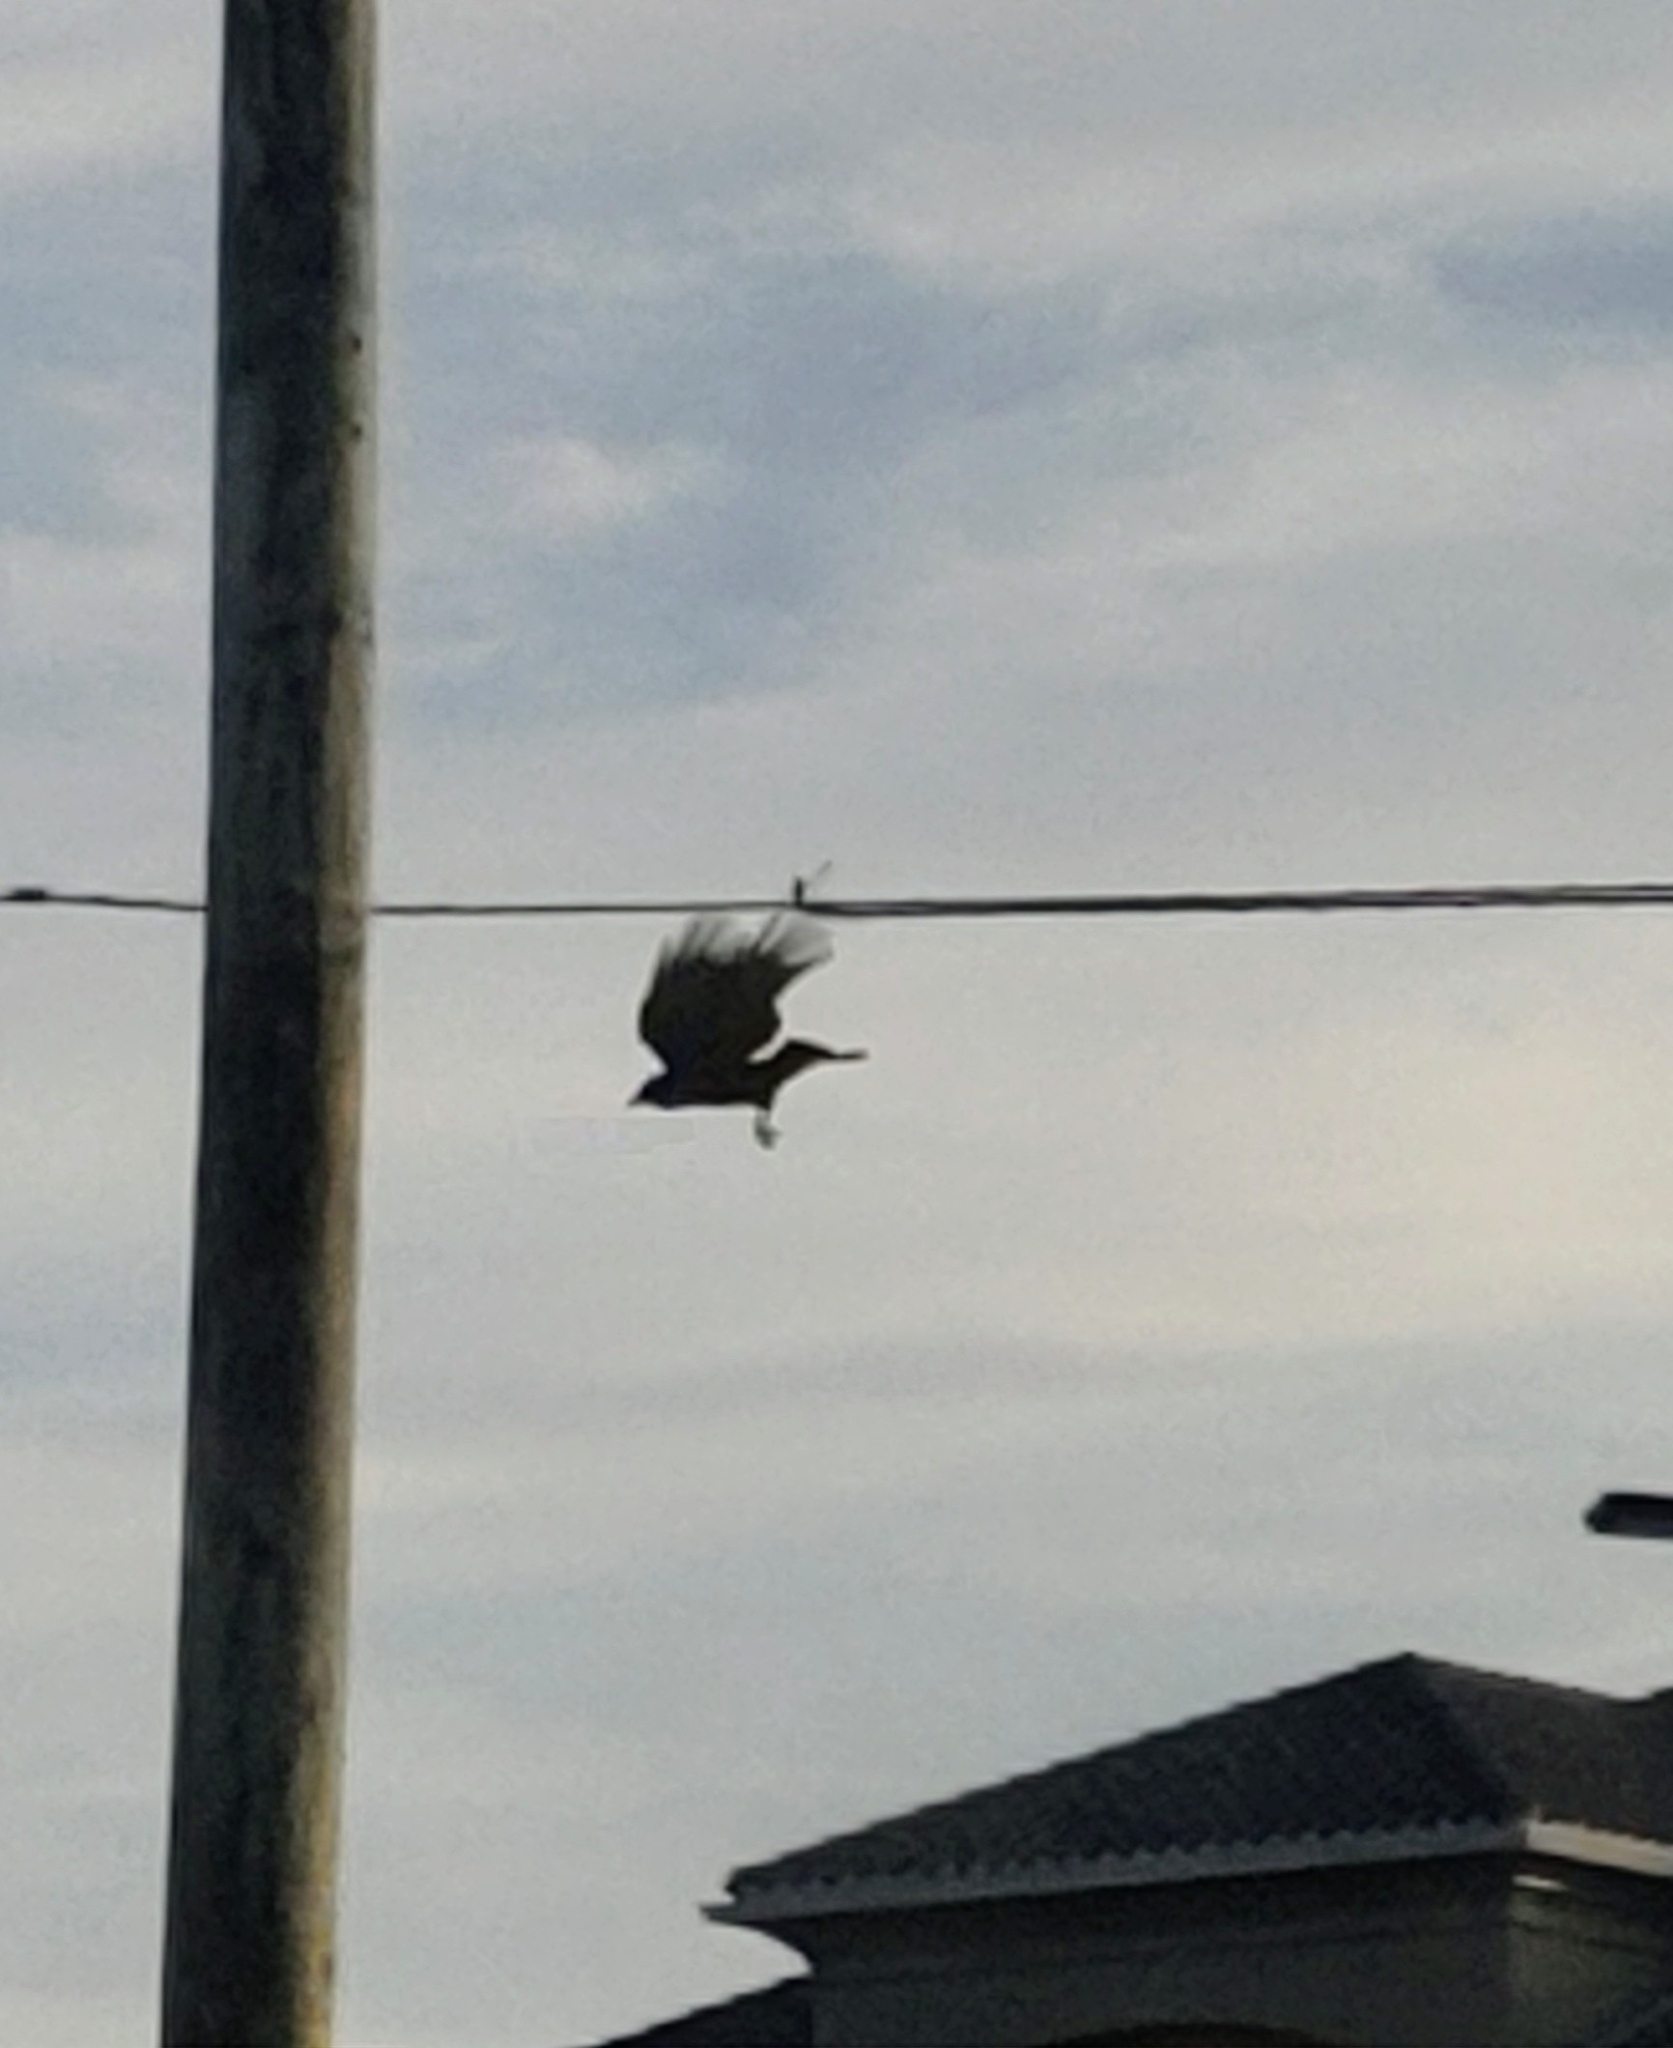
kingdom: Animalia
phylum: Chordata
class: Aves
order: Passeriformes
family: Corvidae
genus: Corvus
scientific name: Corvus
